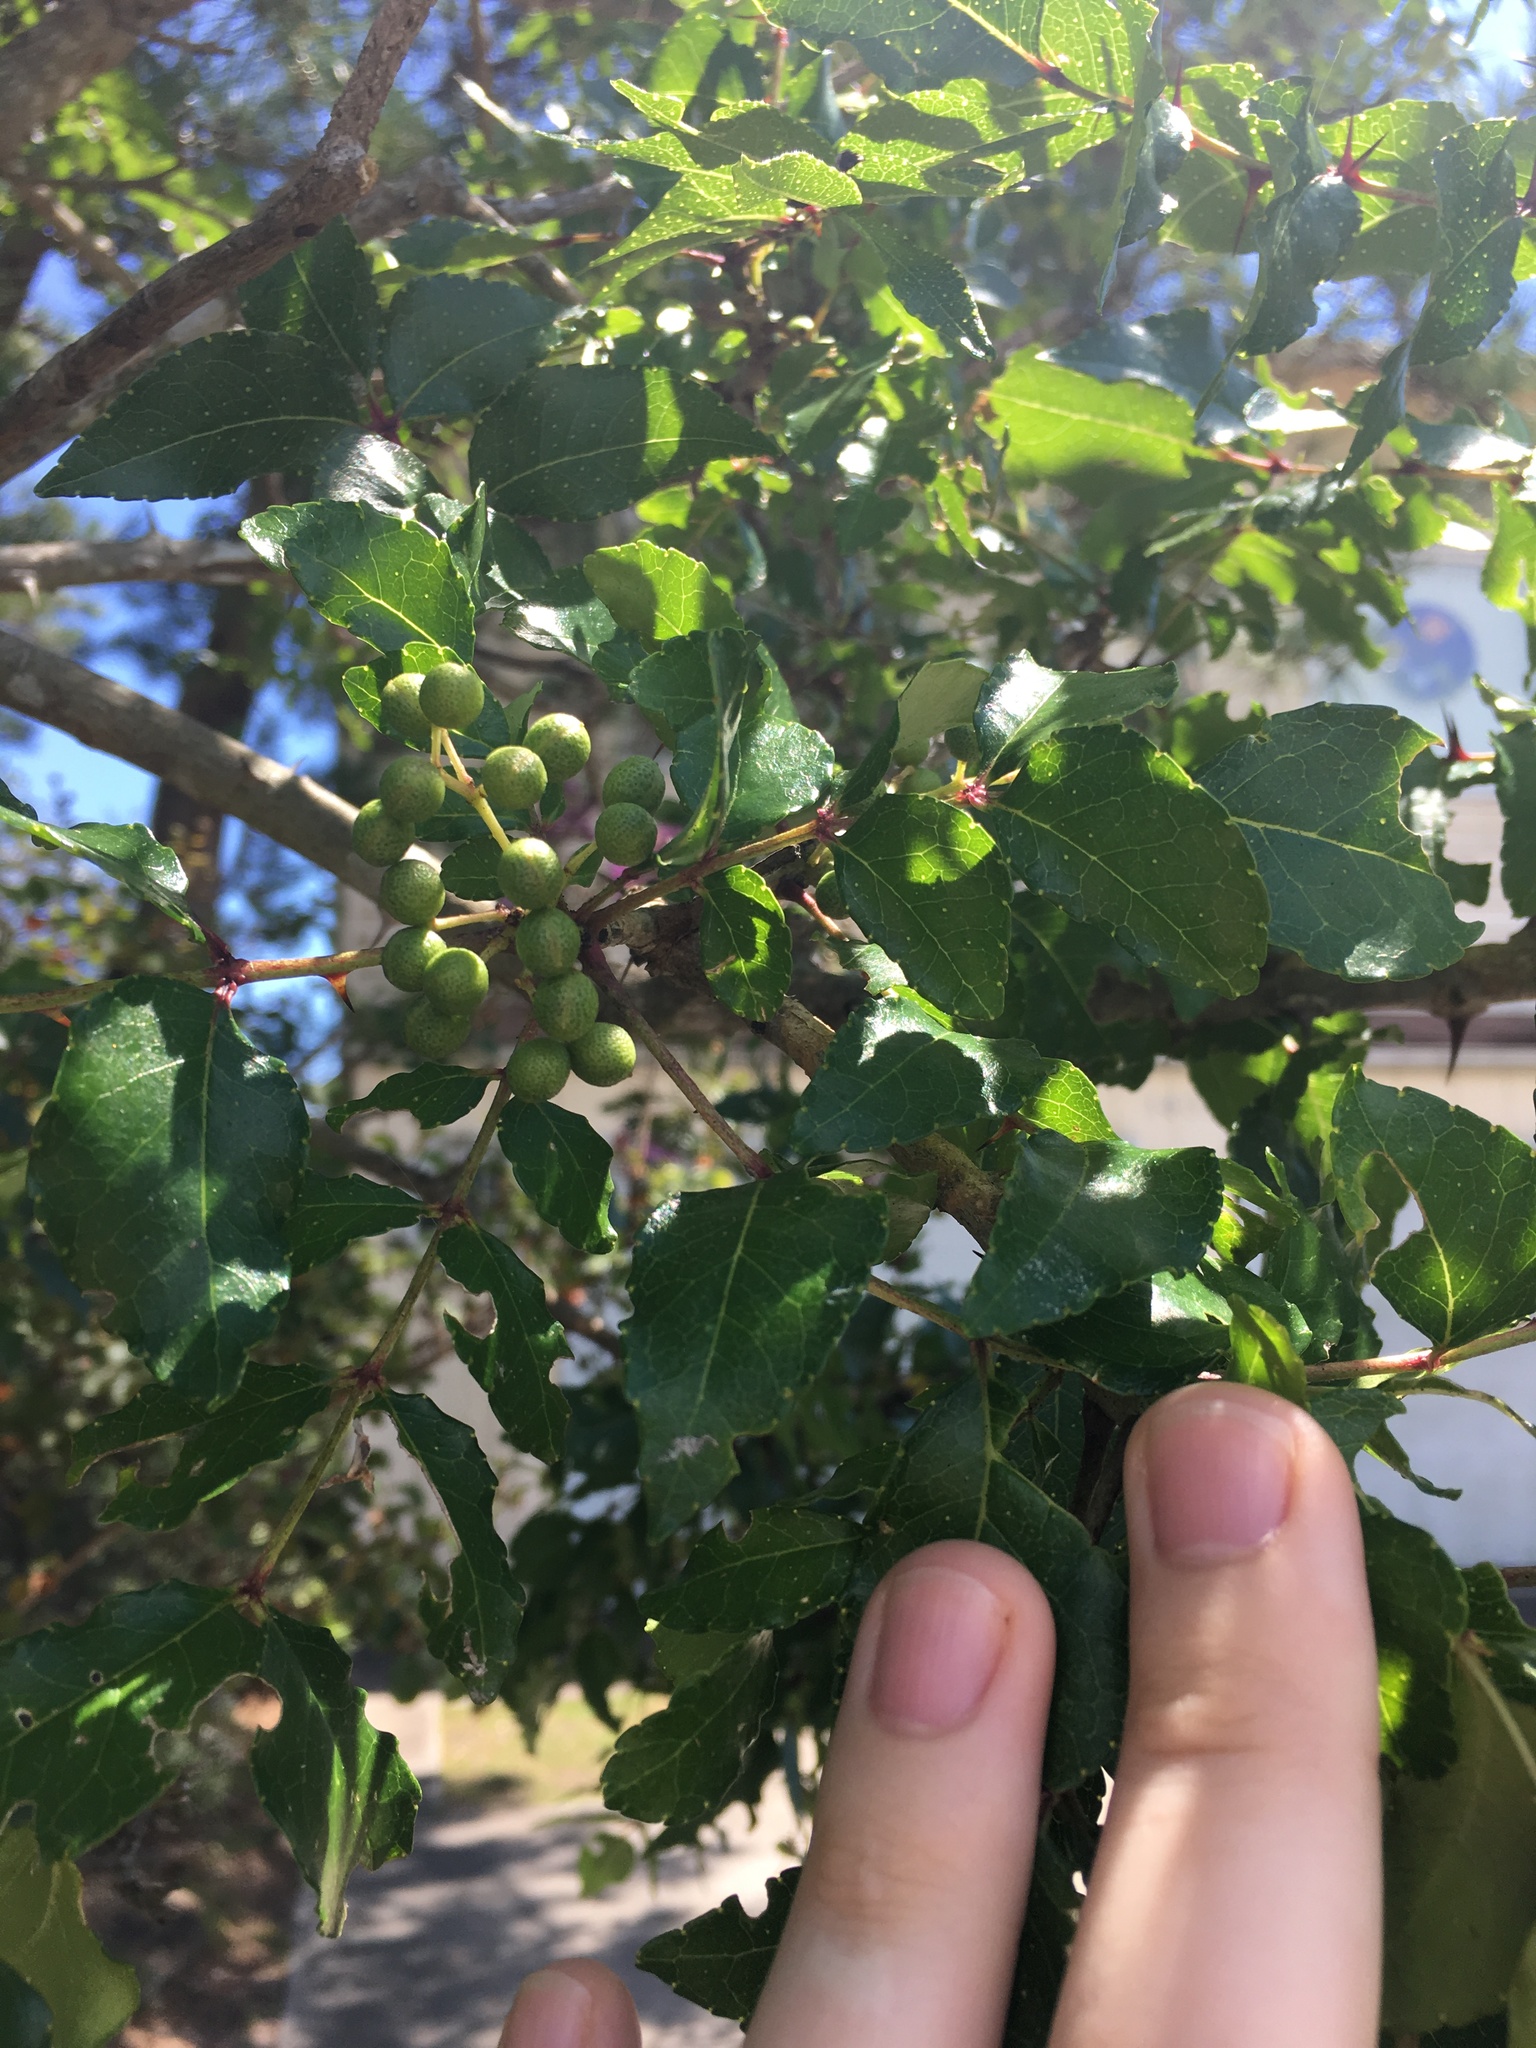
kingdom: Plantae
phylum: Tracheophyta
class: Magnoliopsida
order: Sapindales
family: Rutaceae
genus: Zanthoxylum
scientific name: Zanthoxylum clava-herculis
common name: Hercules'-club
